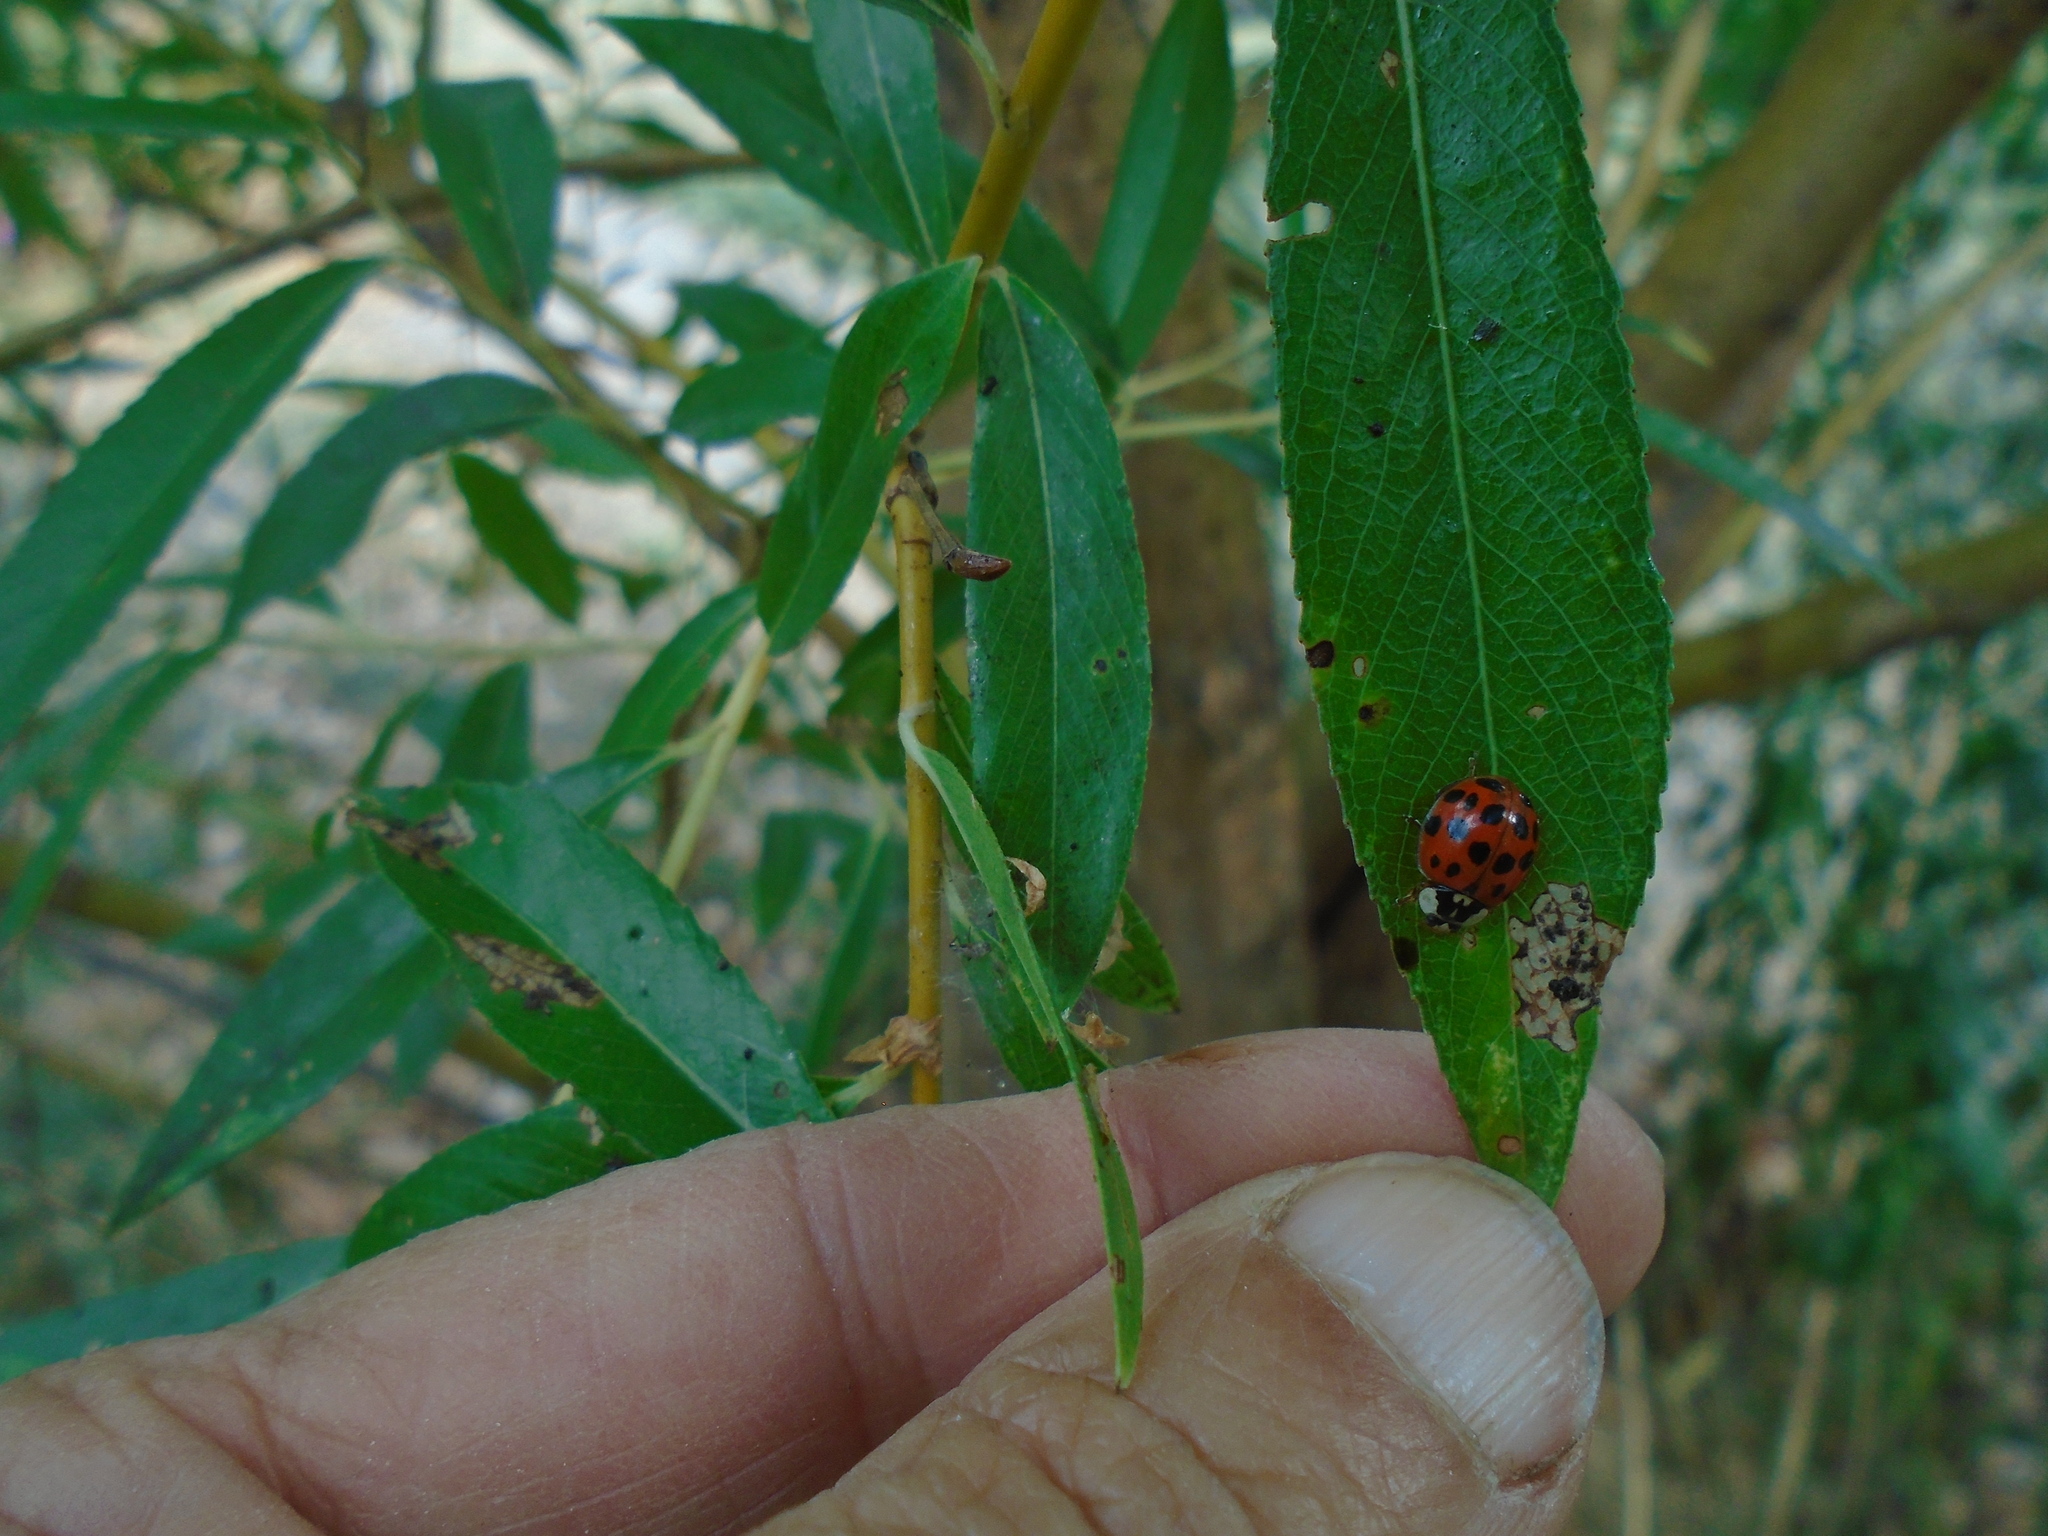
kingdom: Animalia
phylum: Arthropoda
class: Insecta
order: Coleoptera
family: Coccinellidae
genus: Harmonia
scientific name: Harmonia axyridis
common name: Harlequin ladybird
